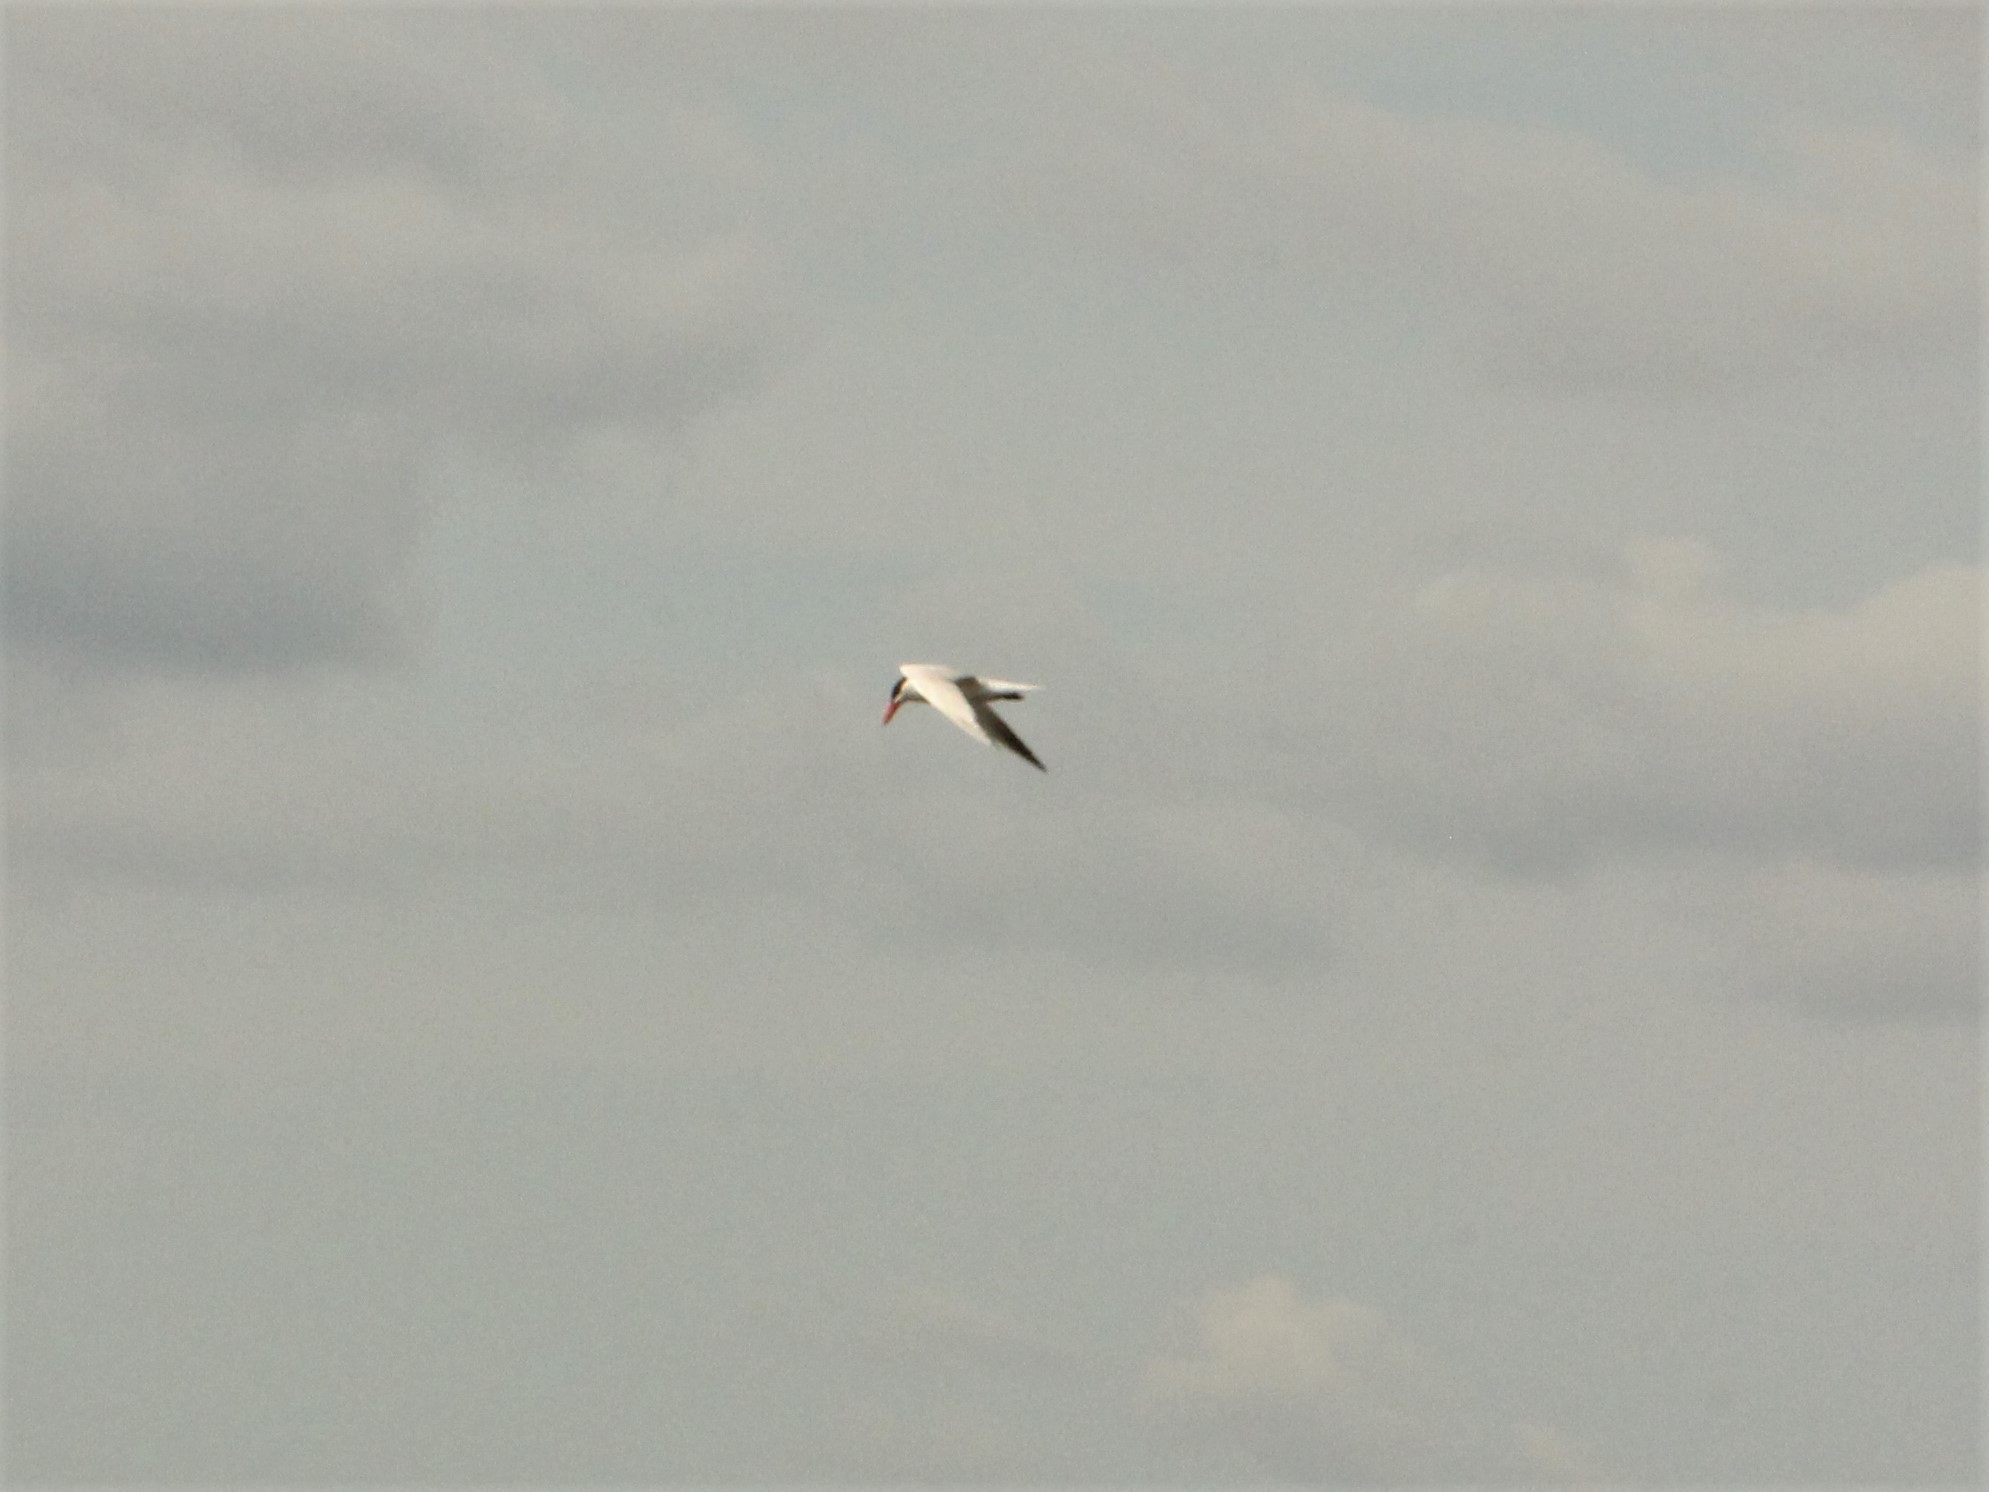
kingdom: Animalia
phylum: Chordata
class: Aves
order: Charadriiformes
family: Laridae
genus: Hydroprogne
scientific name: Hydroprogne caspia
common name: Caspian tern
